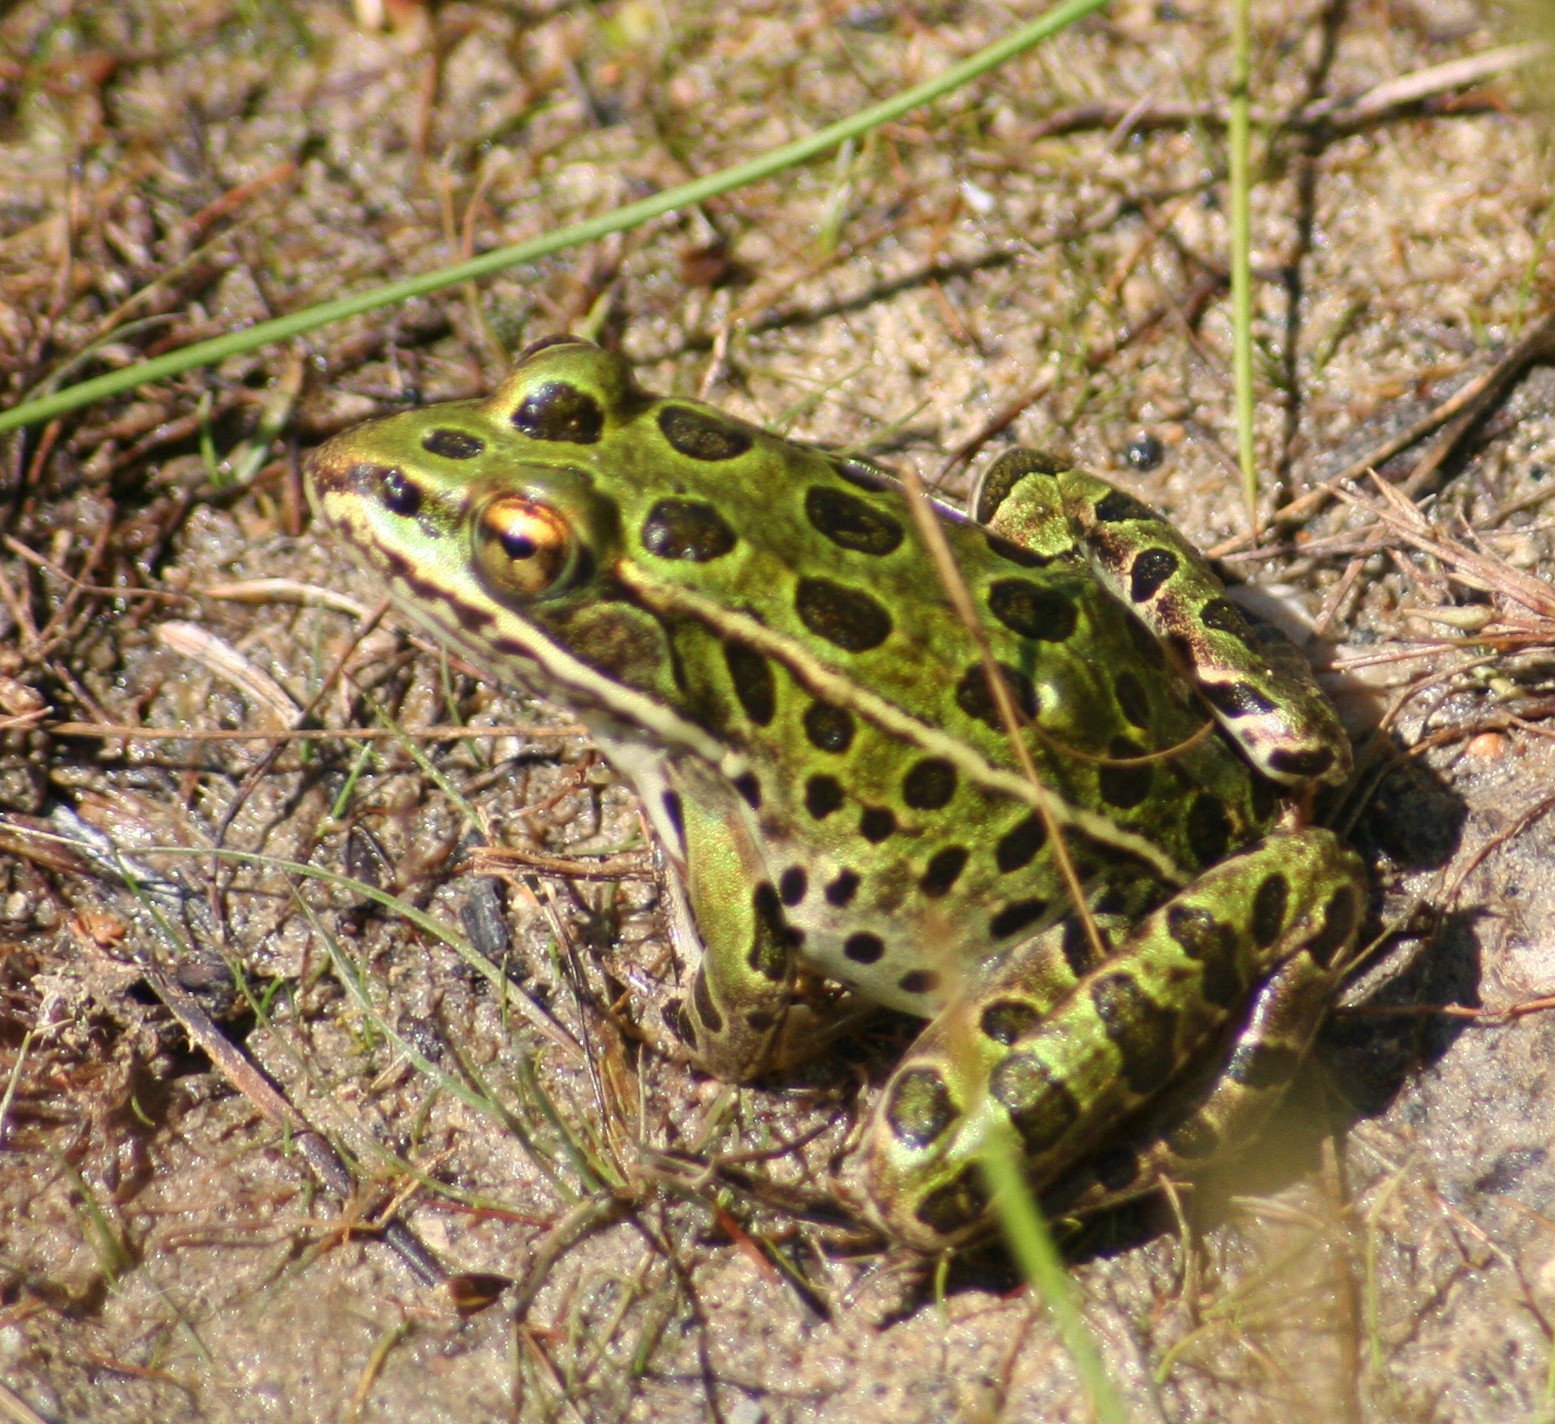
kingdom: Animalia
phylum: Chordata
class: Amphibia
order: Anura
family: Ranidae
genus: Lithobates
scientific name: Lithobates pipiens
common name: Northern leopard frog
